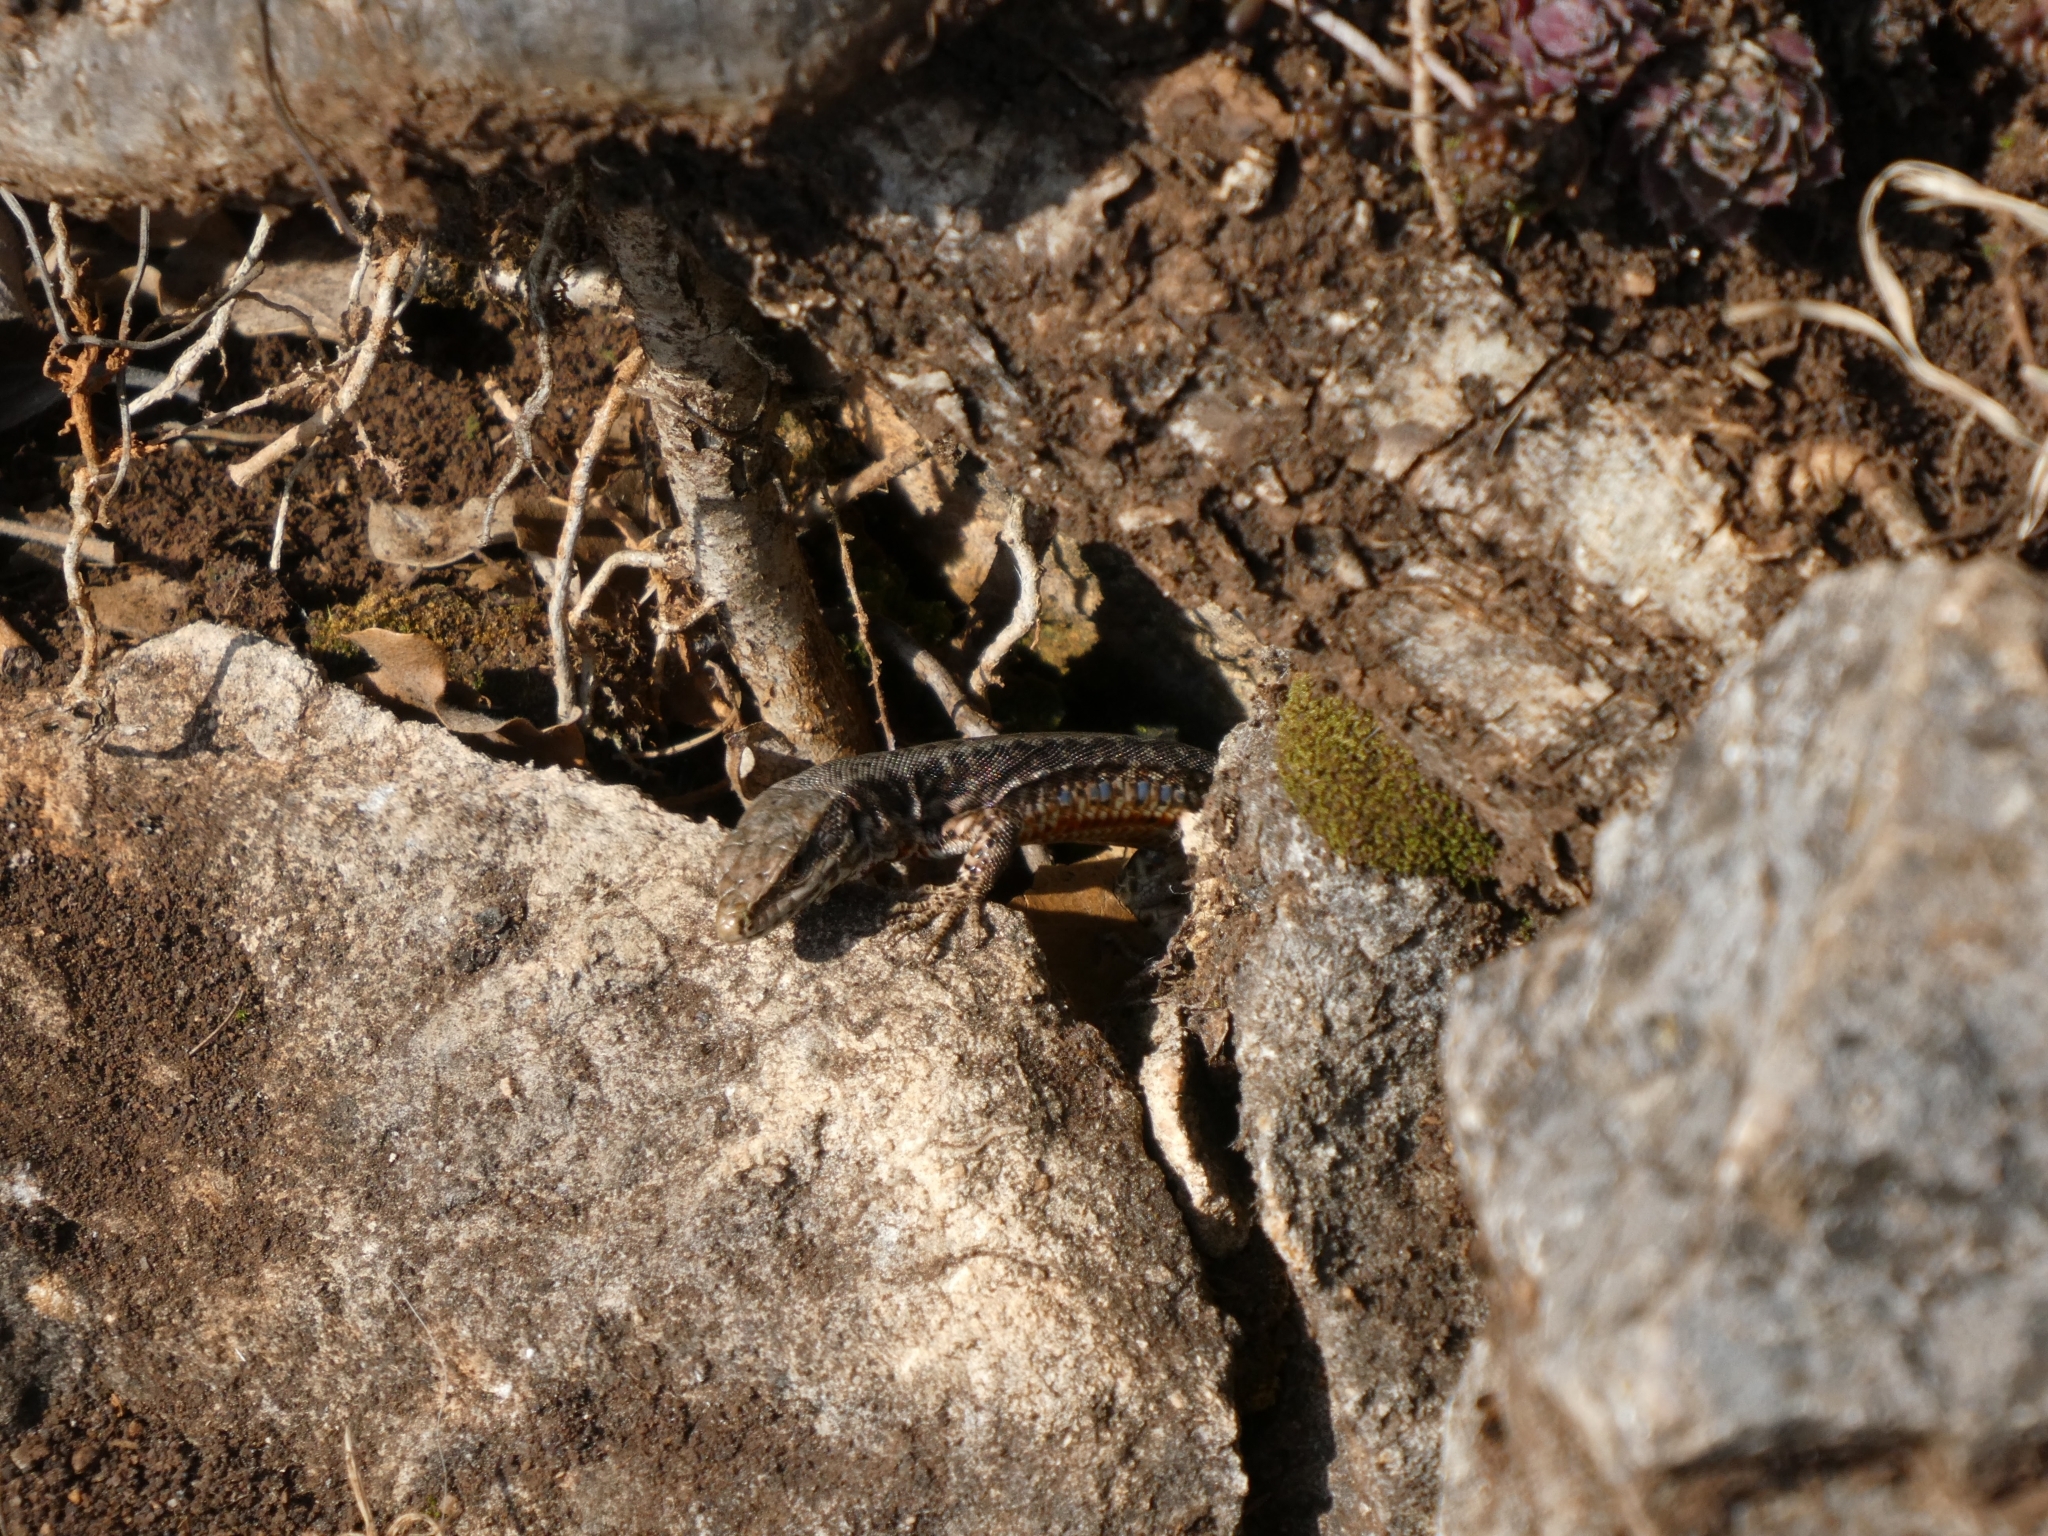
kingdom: Animalia
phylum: Chordata
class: Squamata
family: Lacertidae
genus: Podarcis
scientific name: Podarcis muralis
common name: Common wall lizard
